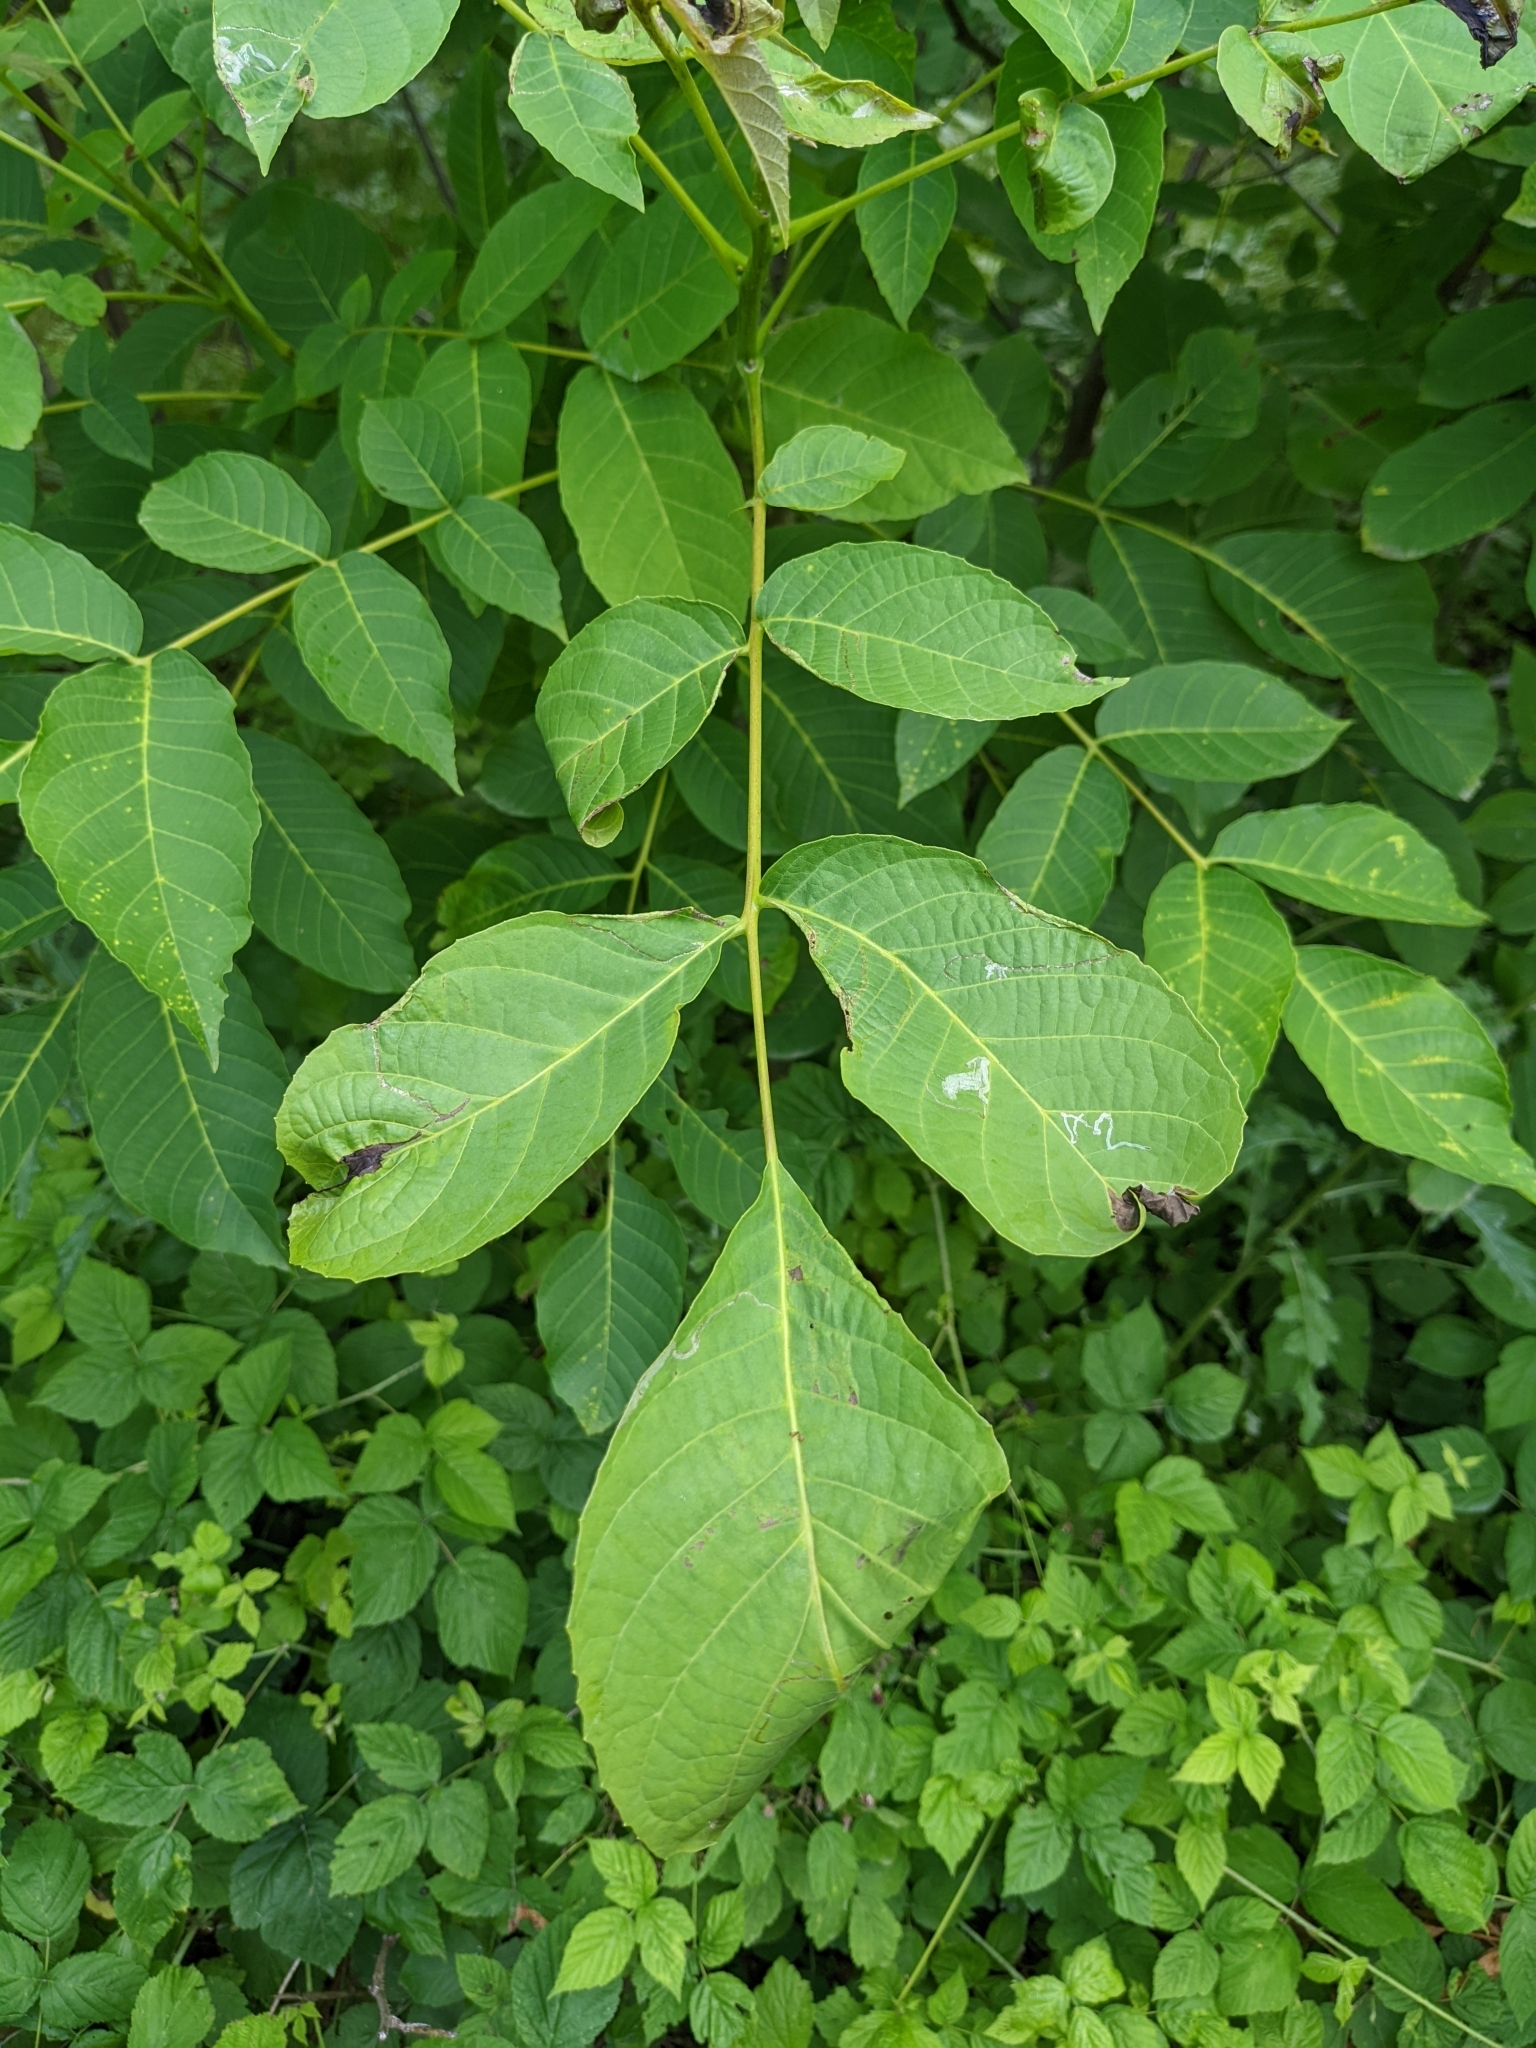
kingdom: Plantae
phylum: Tracheophyta
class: Magnoliopsida
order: Fagales
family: Juglandaceae
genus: Juglans
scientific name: Juglans regia
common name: Walnut
